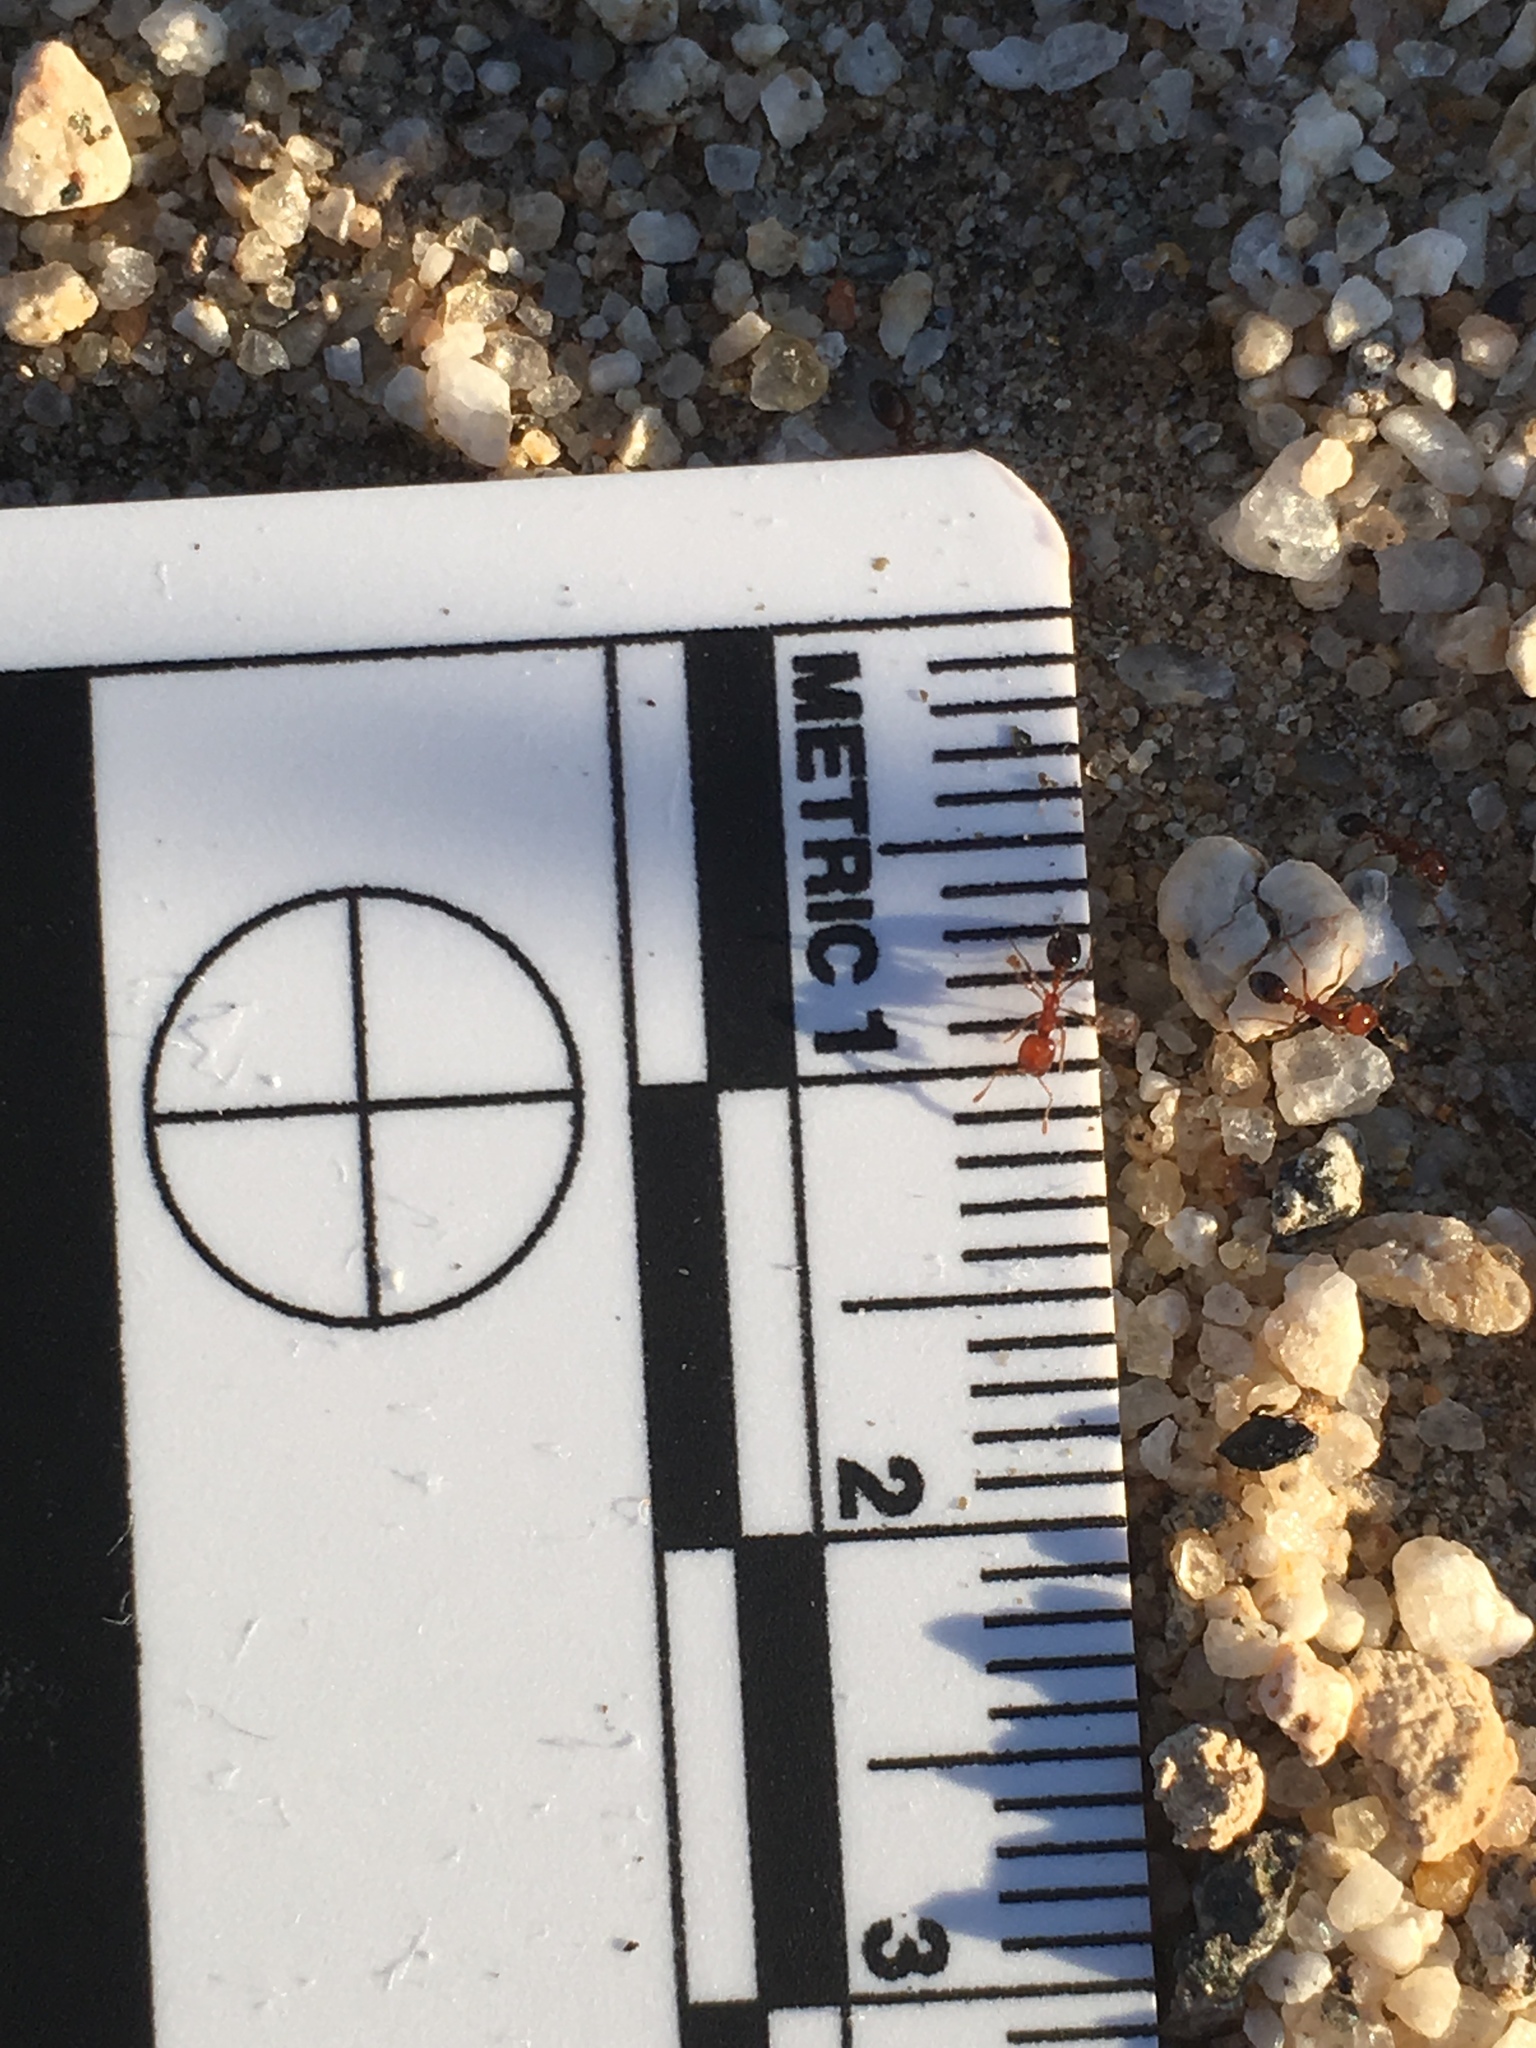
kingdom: Animalia
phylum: Arthropoda
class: Insecta
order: Hymenoptera
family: Formicidae
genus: Solenopsis
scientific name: Solenopsis xyloni
